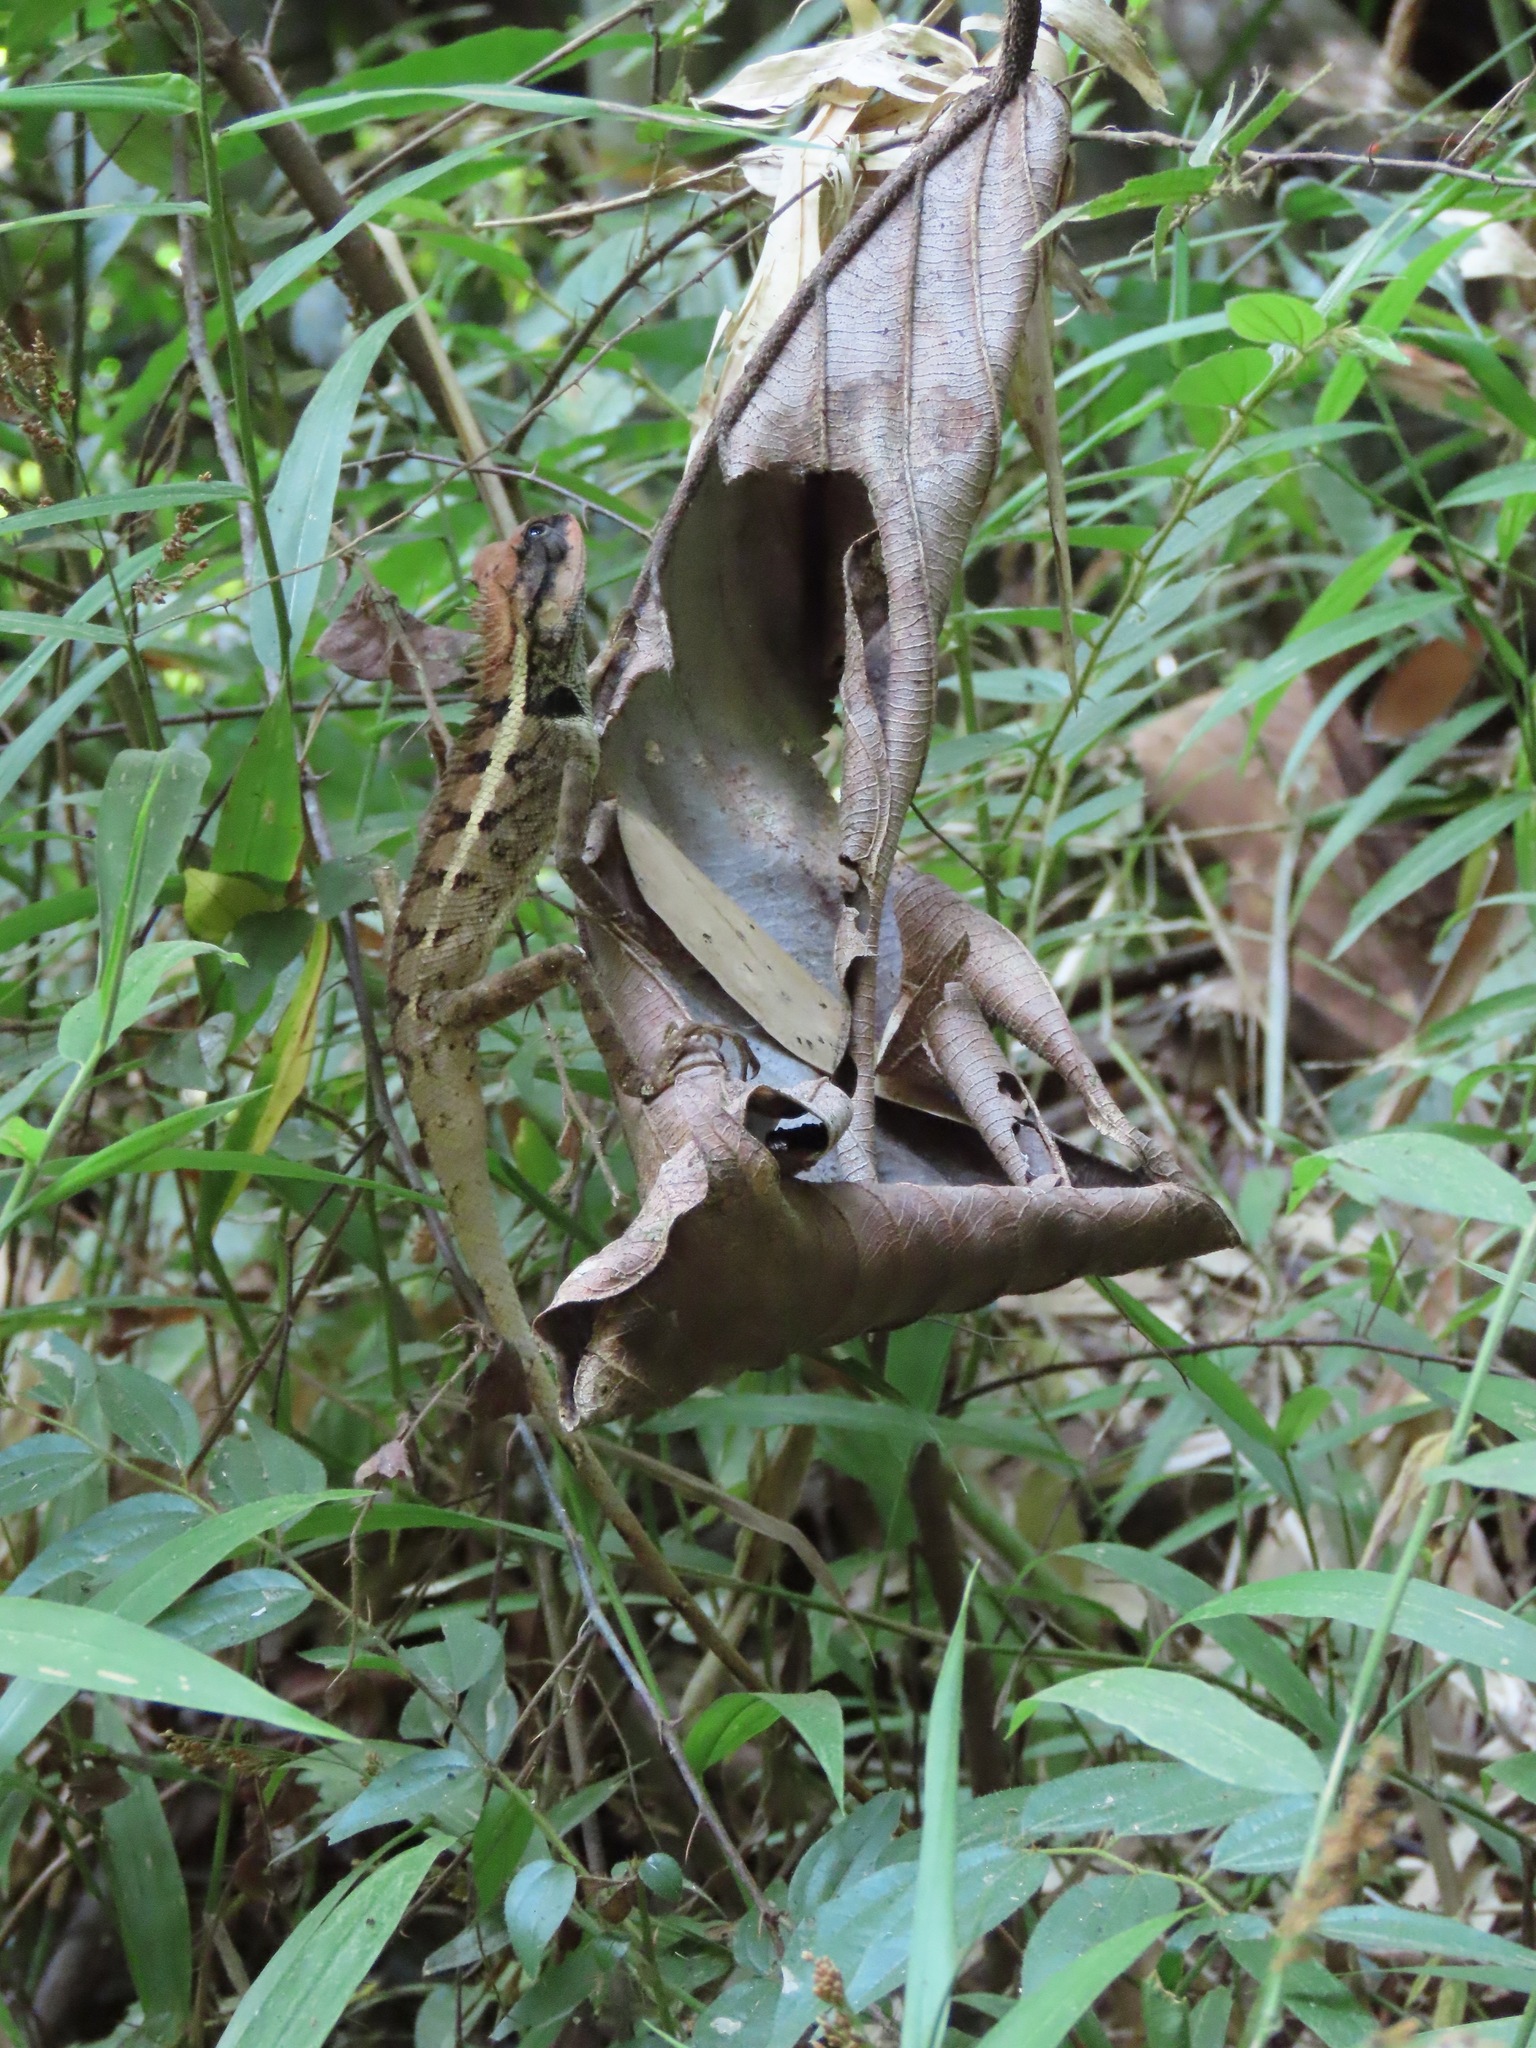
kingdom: Animalia
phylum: Chordata
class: Squamata
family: Agamidae
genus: Calotes
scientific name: Calotes emma
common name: Thailand bloodsucker
